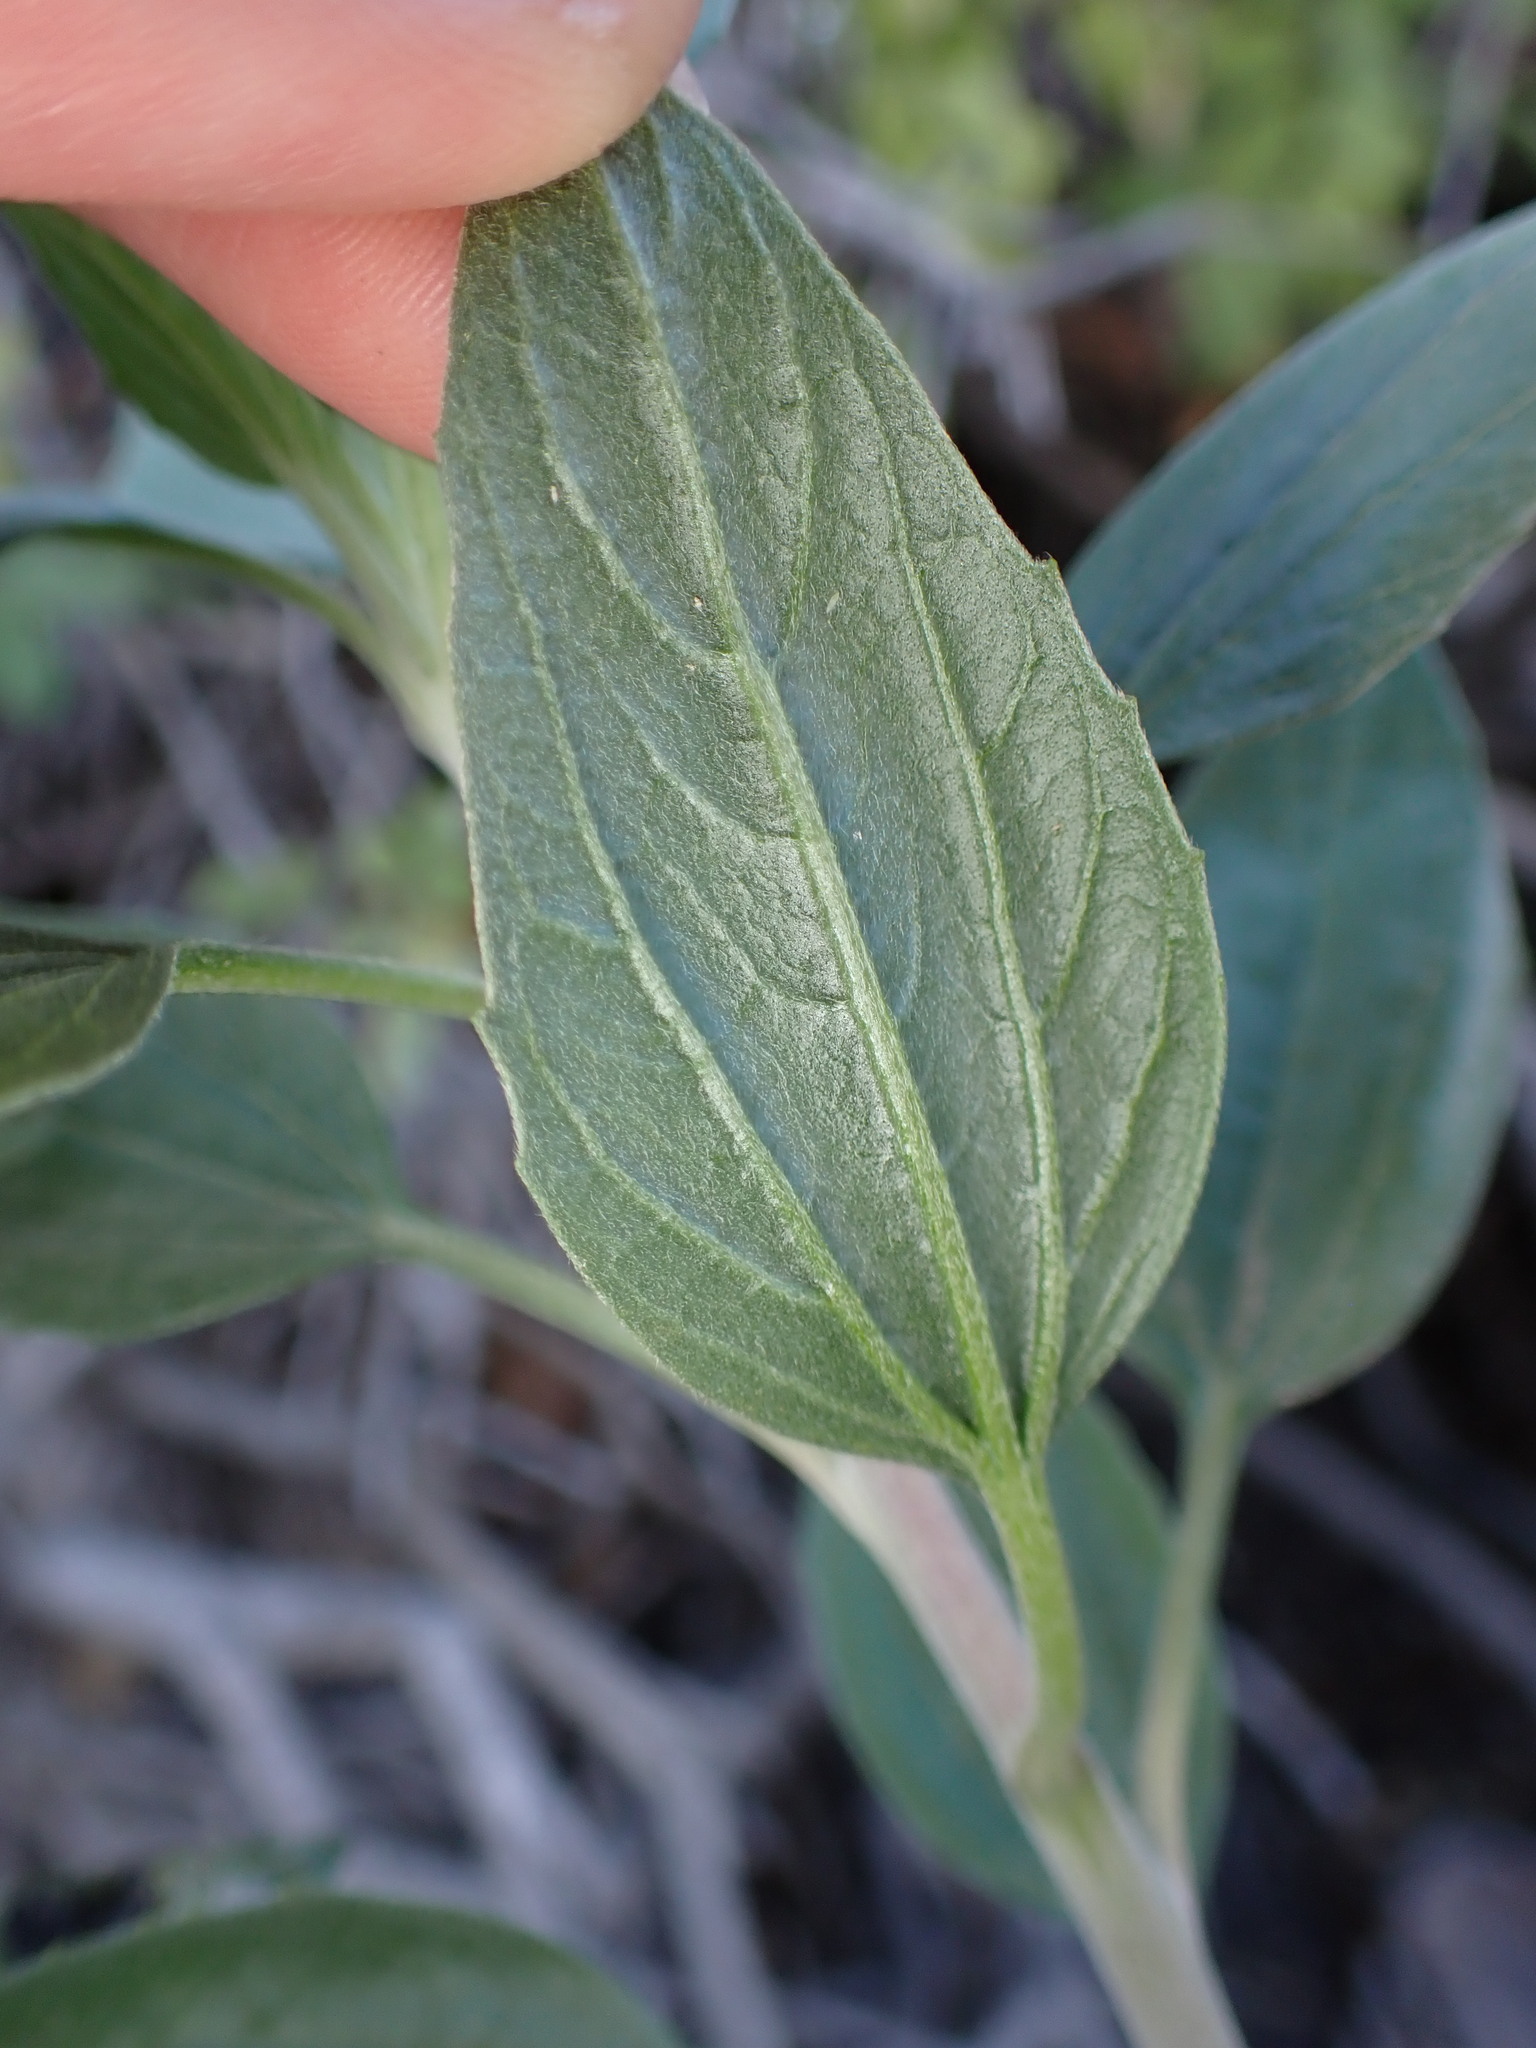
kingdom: Plantae
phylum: Tracheophyta
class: Magnoliopsida
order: Asterales
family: Asteraceae
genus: Encelia
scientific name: Encelia californica
